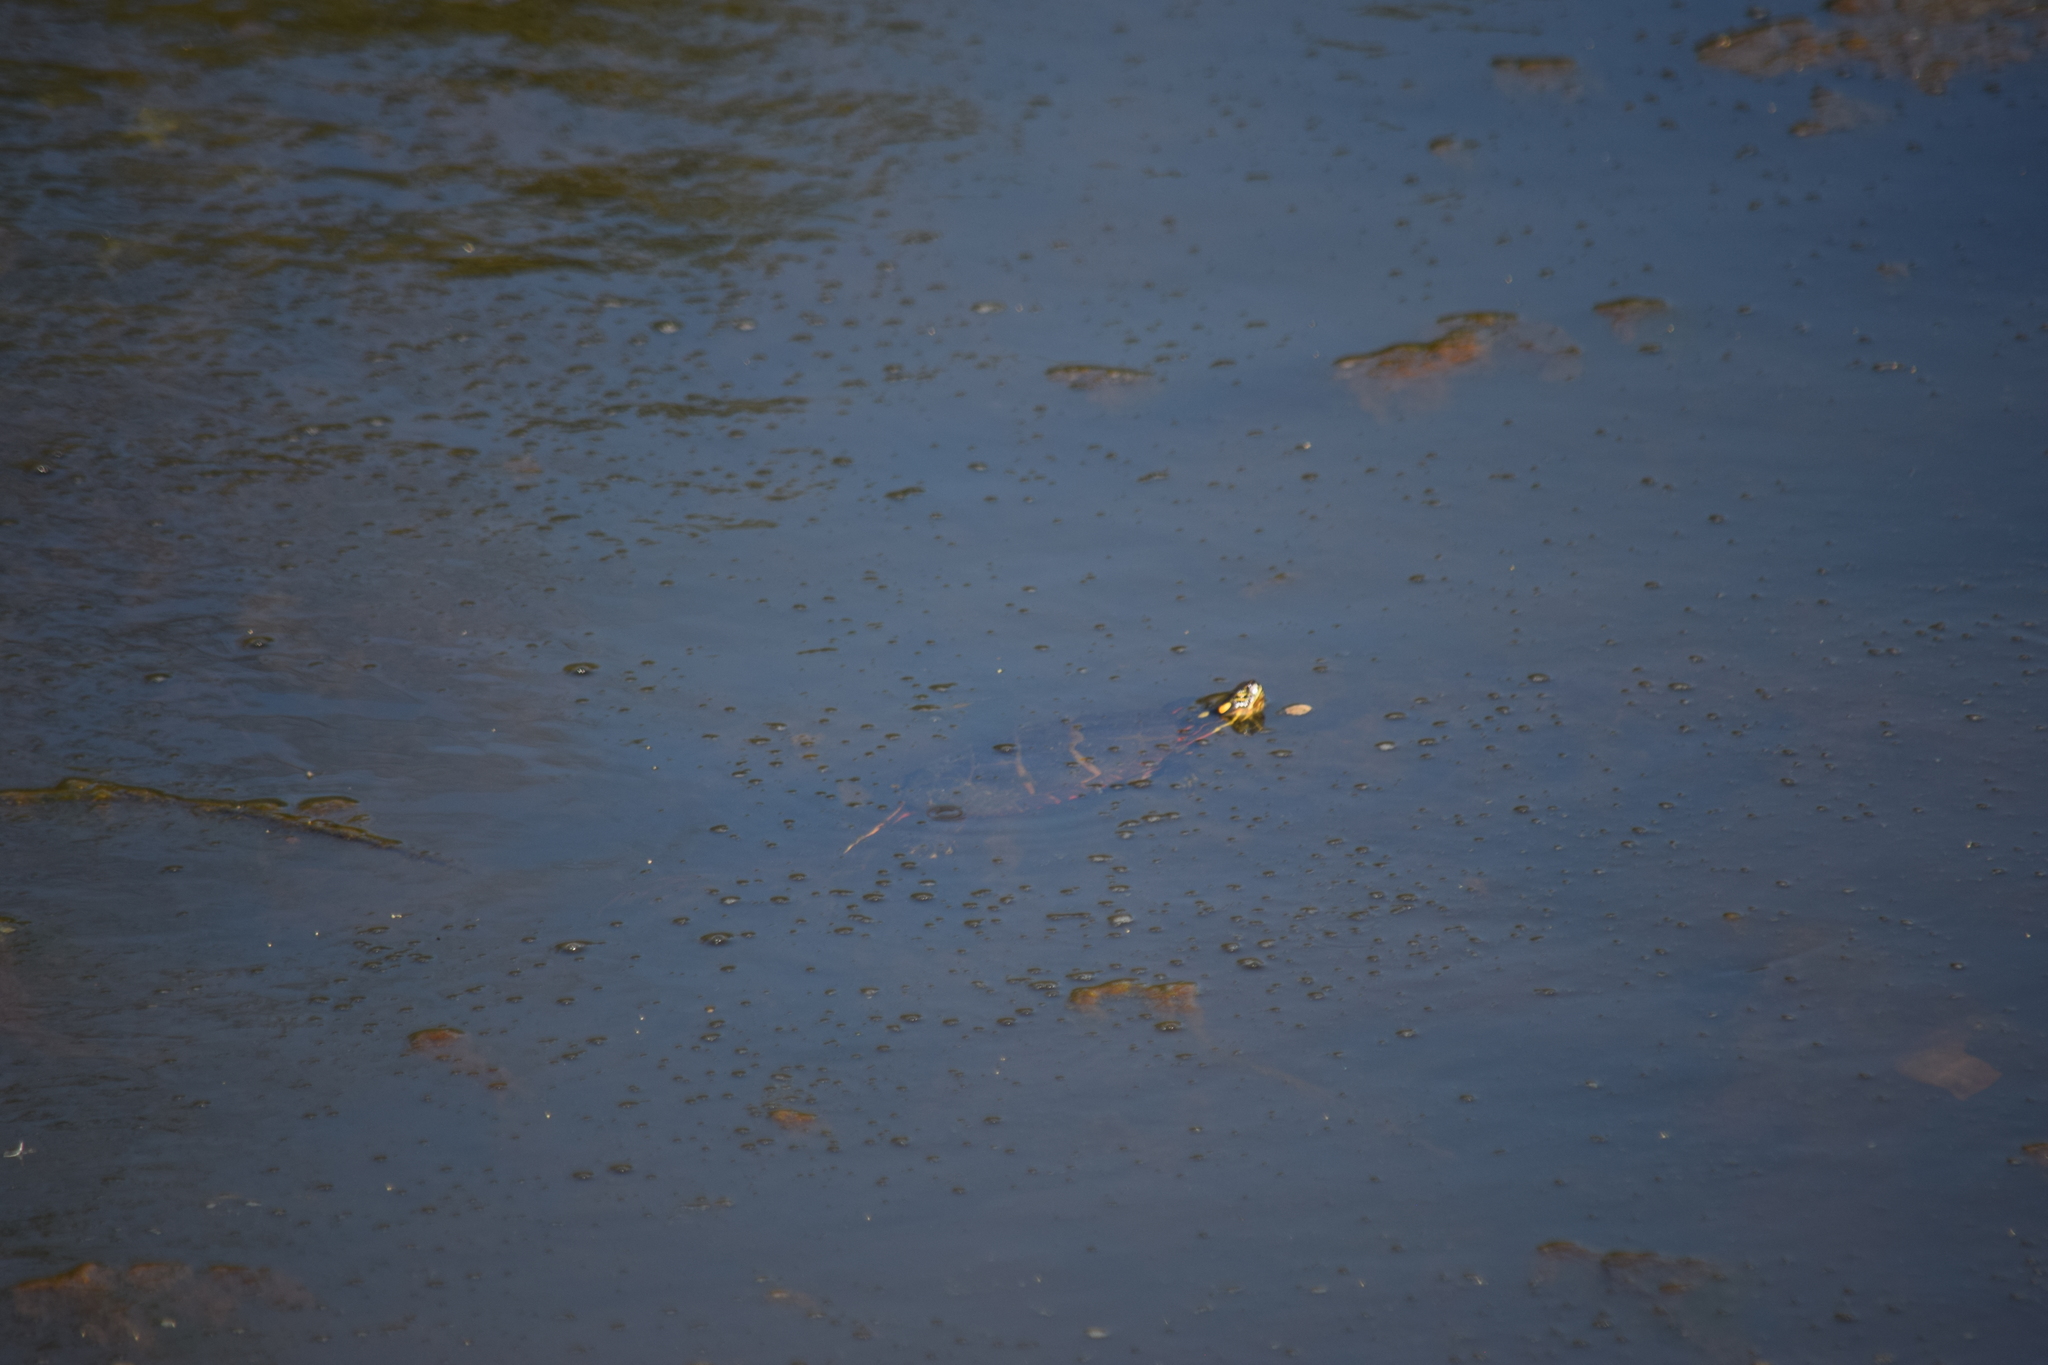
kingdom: Animalia
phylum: Chordata
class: Testudines
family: Emydidae
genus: Chrysemys
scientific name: Chrysemys picta
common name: Painted turtle
